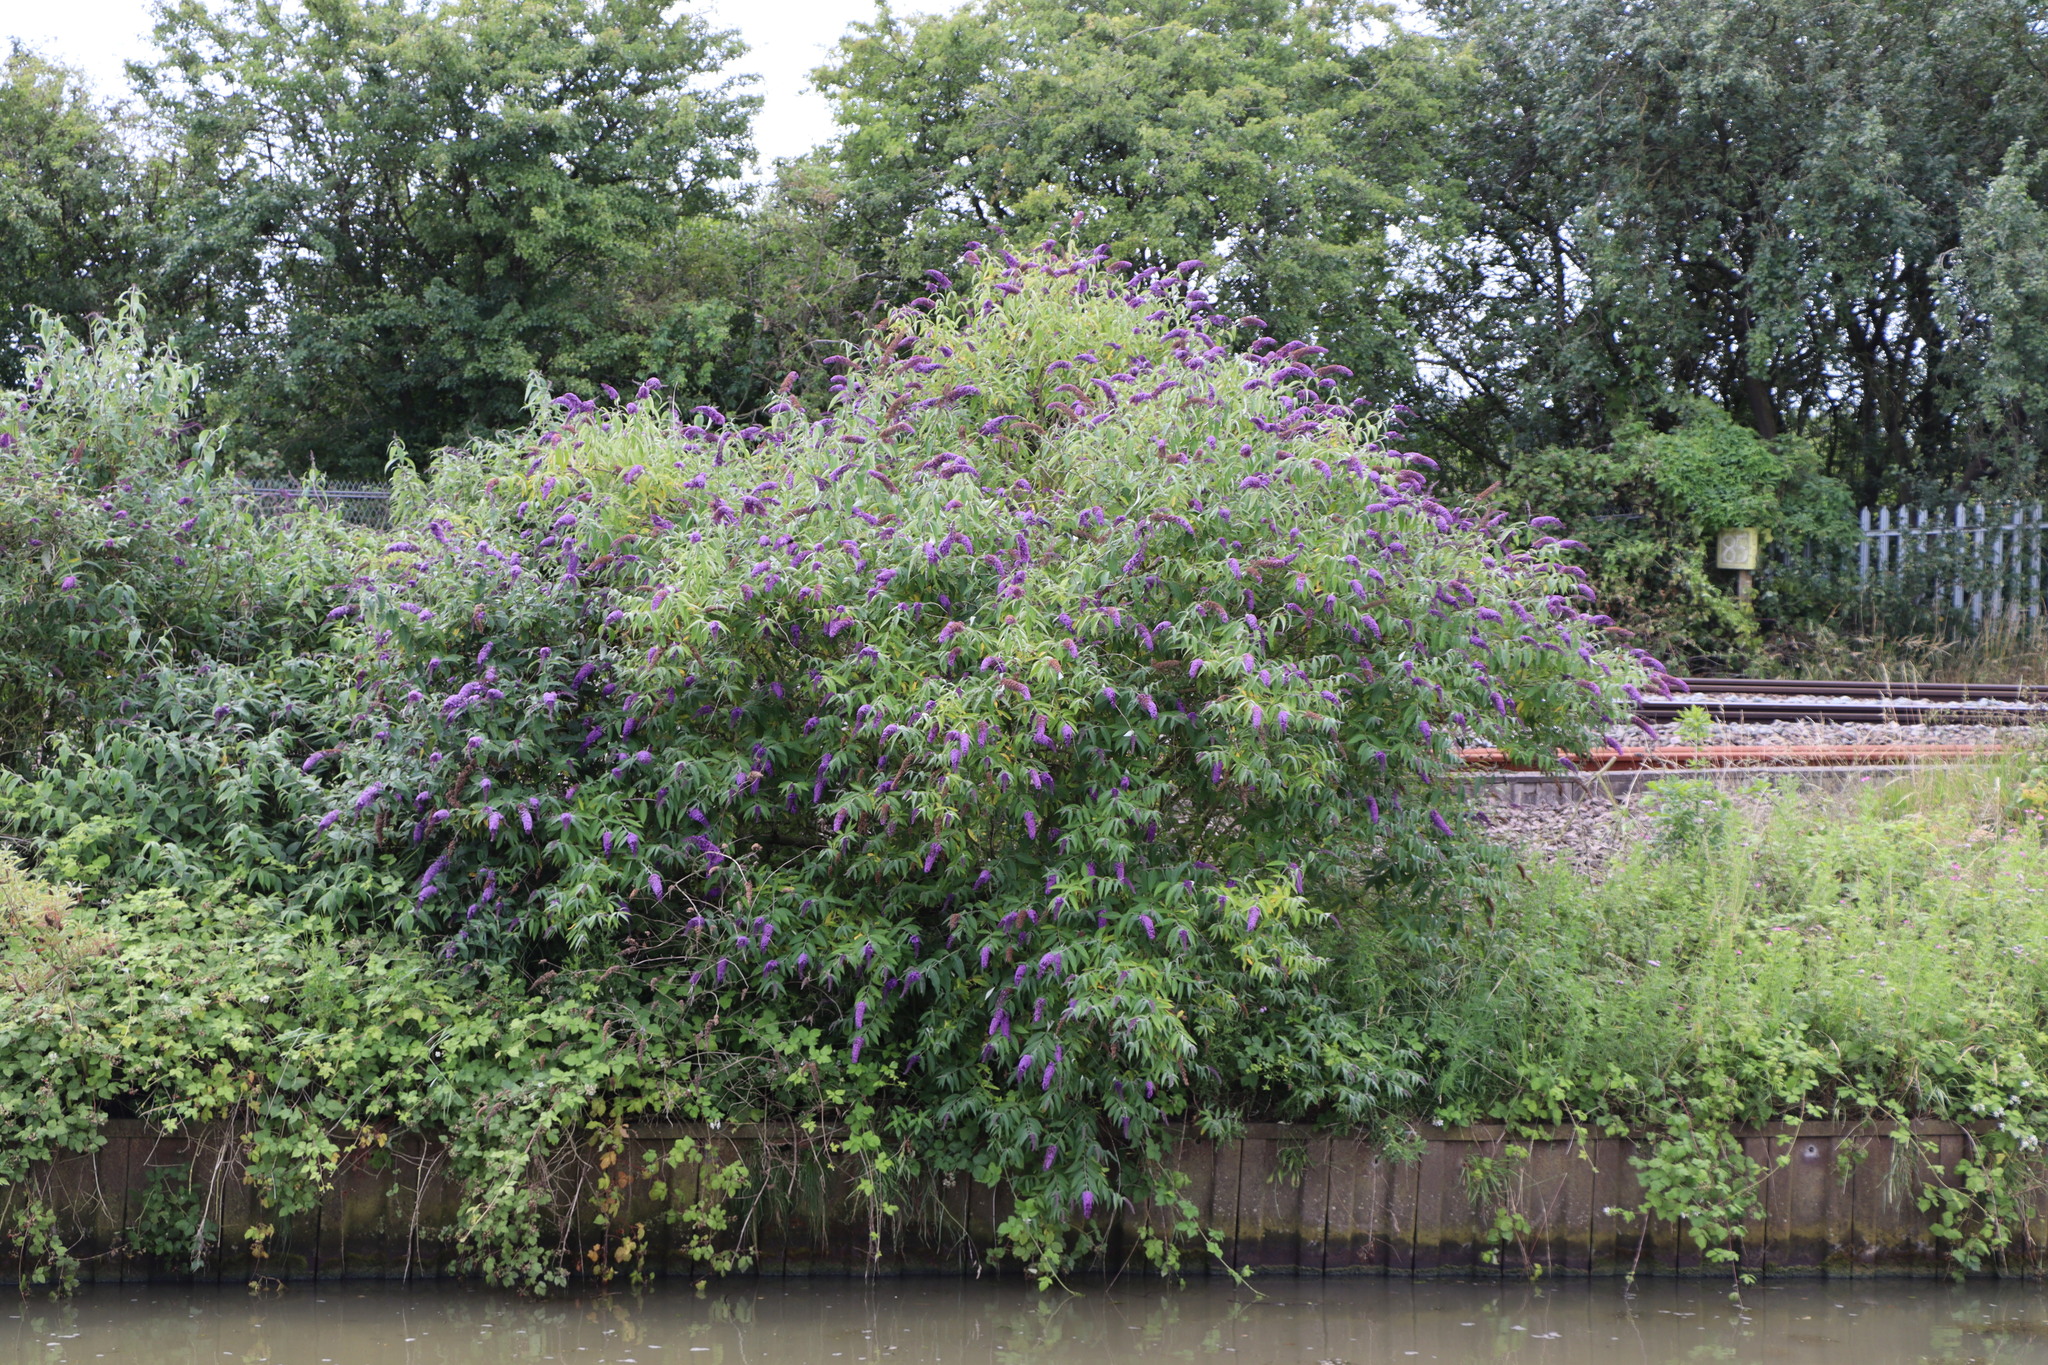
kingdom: Plantae
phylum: Tracheophyta
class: Magnoliopsida
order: Lamiales
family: Scrophulariaceae
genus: Buddleja
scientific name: Buddleja davidii
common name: Butterfly-bush
